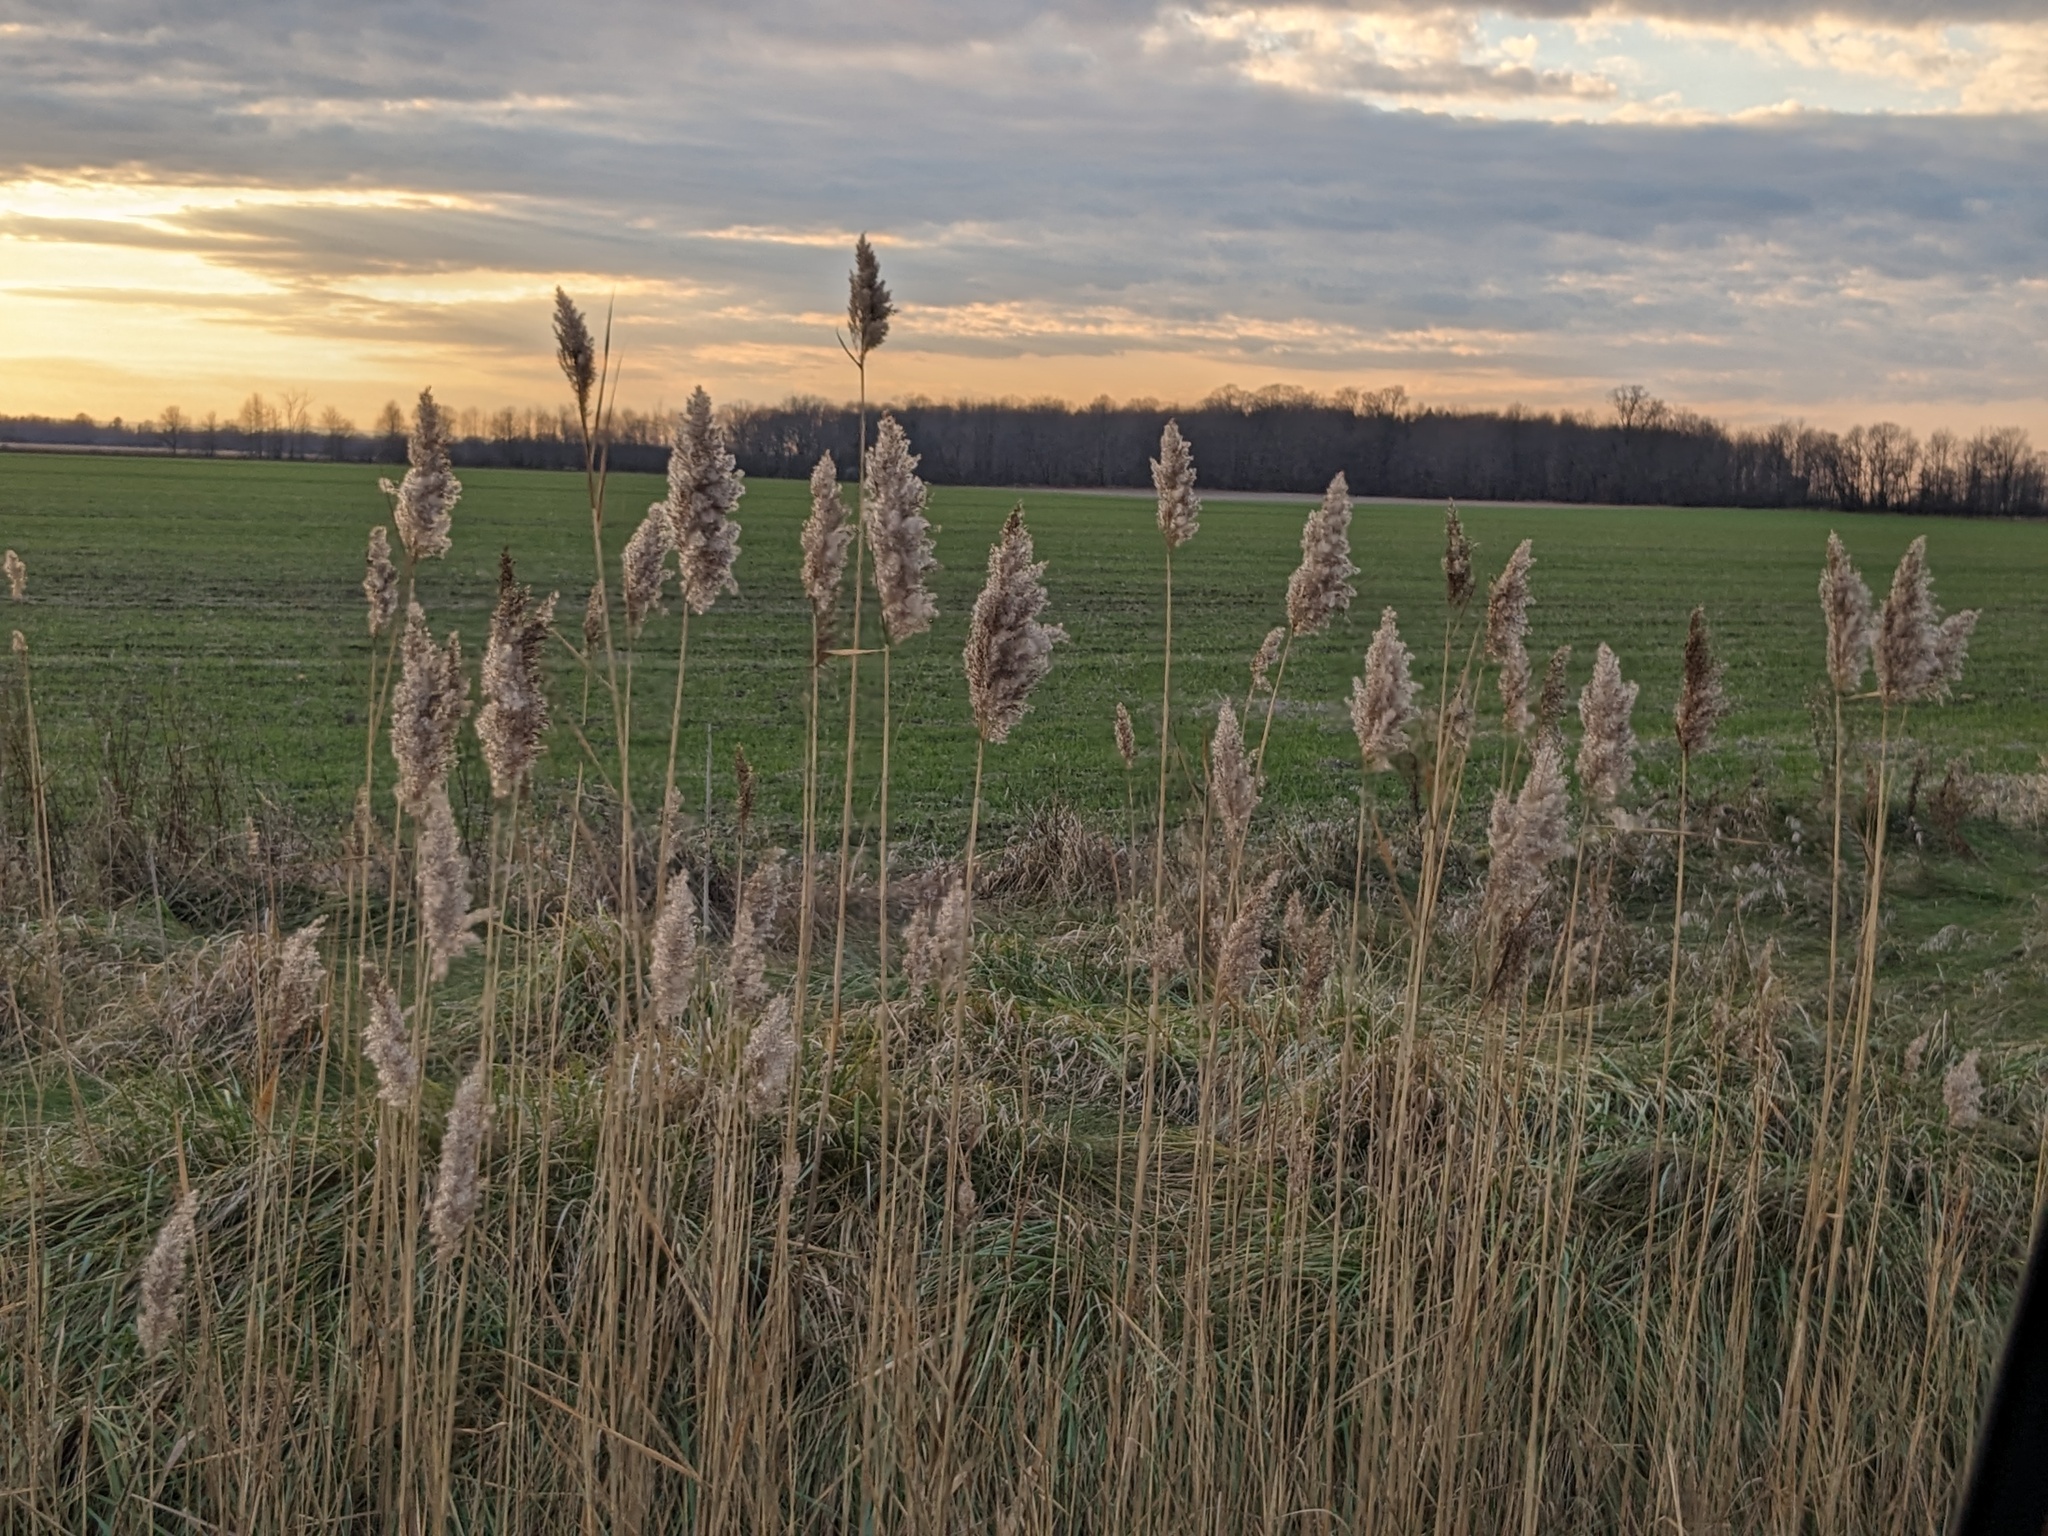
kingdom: Plantae
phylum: Tracheophyta
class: Liliopsida
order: Poales
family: Poaceae
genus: Phragmites
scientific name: Phragmites australis
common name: Common reed
